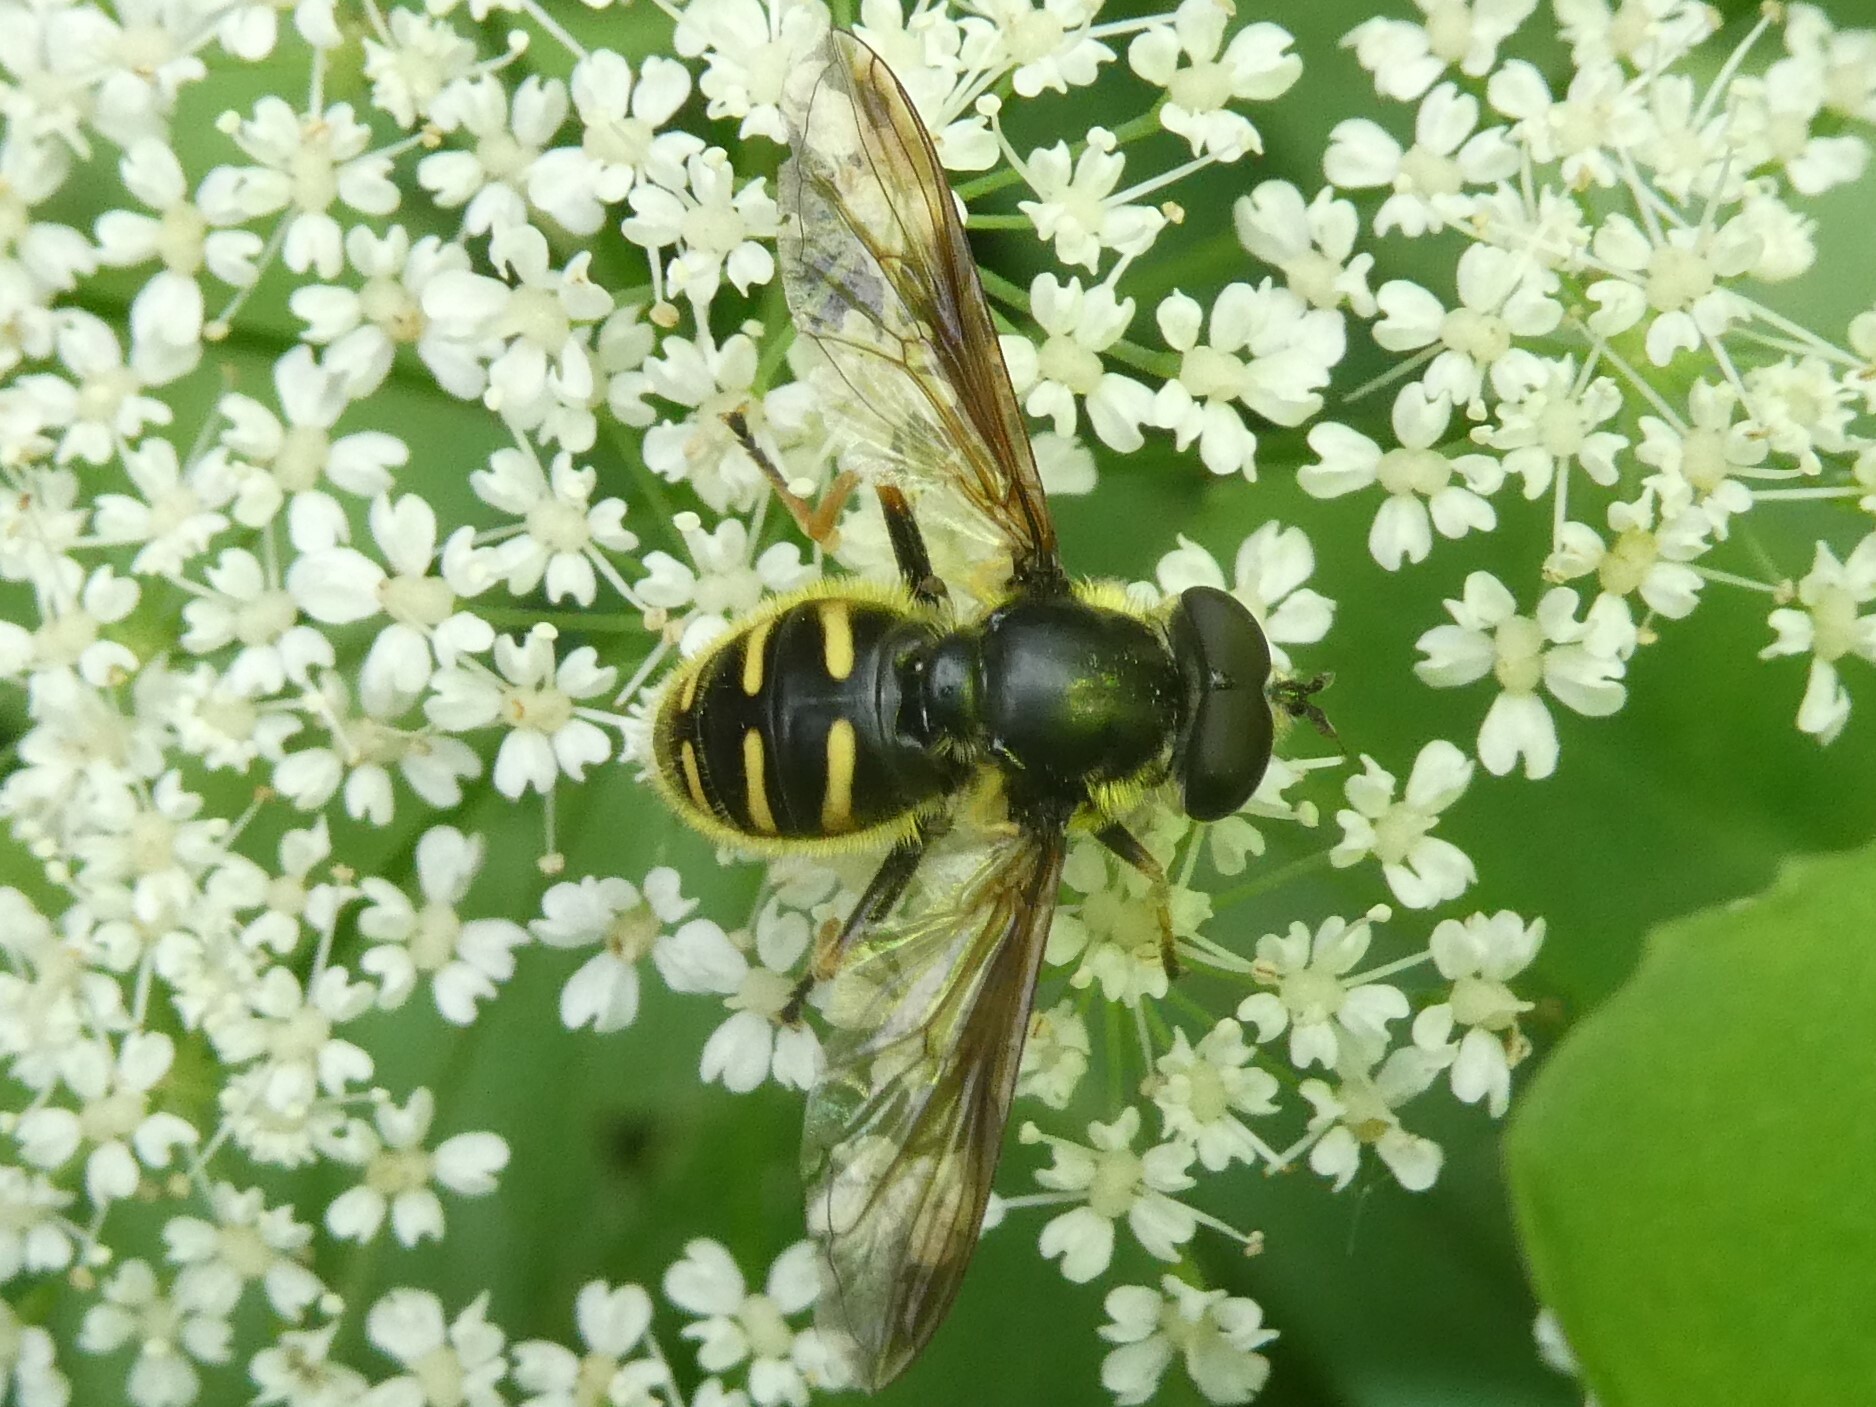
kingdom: Animalia
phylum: Arthropoda
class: Insecta
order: Diptera
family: Syrphidae
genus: Sericomyia
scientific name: Sericomyia chrysotoxoides
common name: Oblique-banded pond fly
